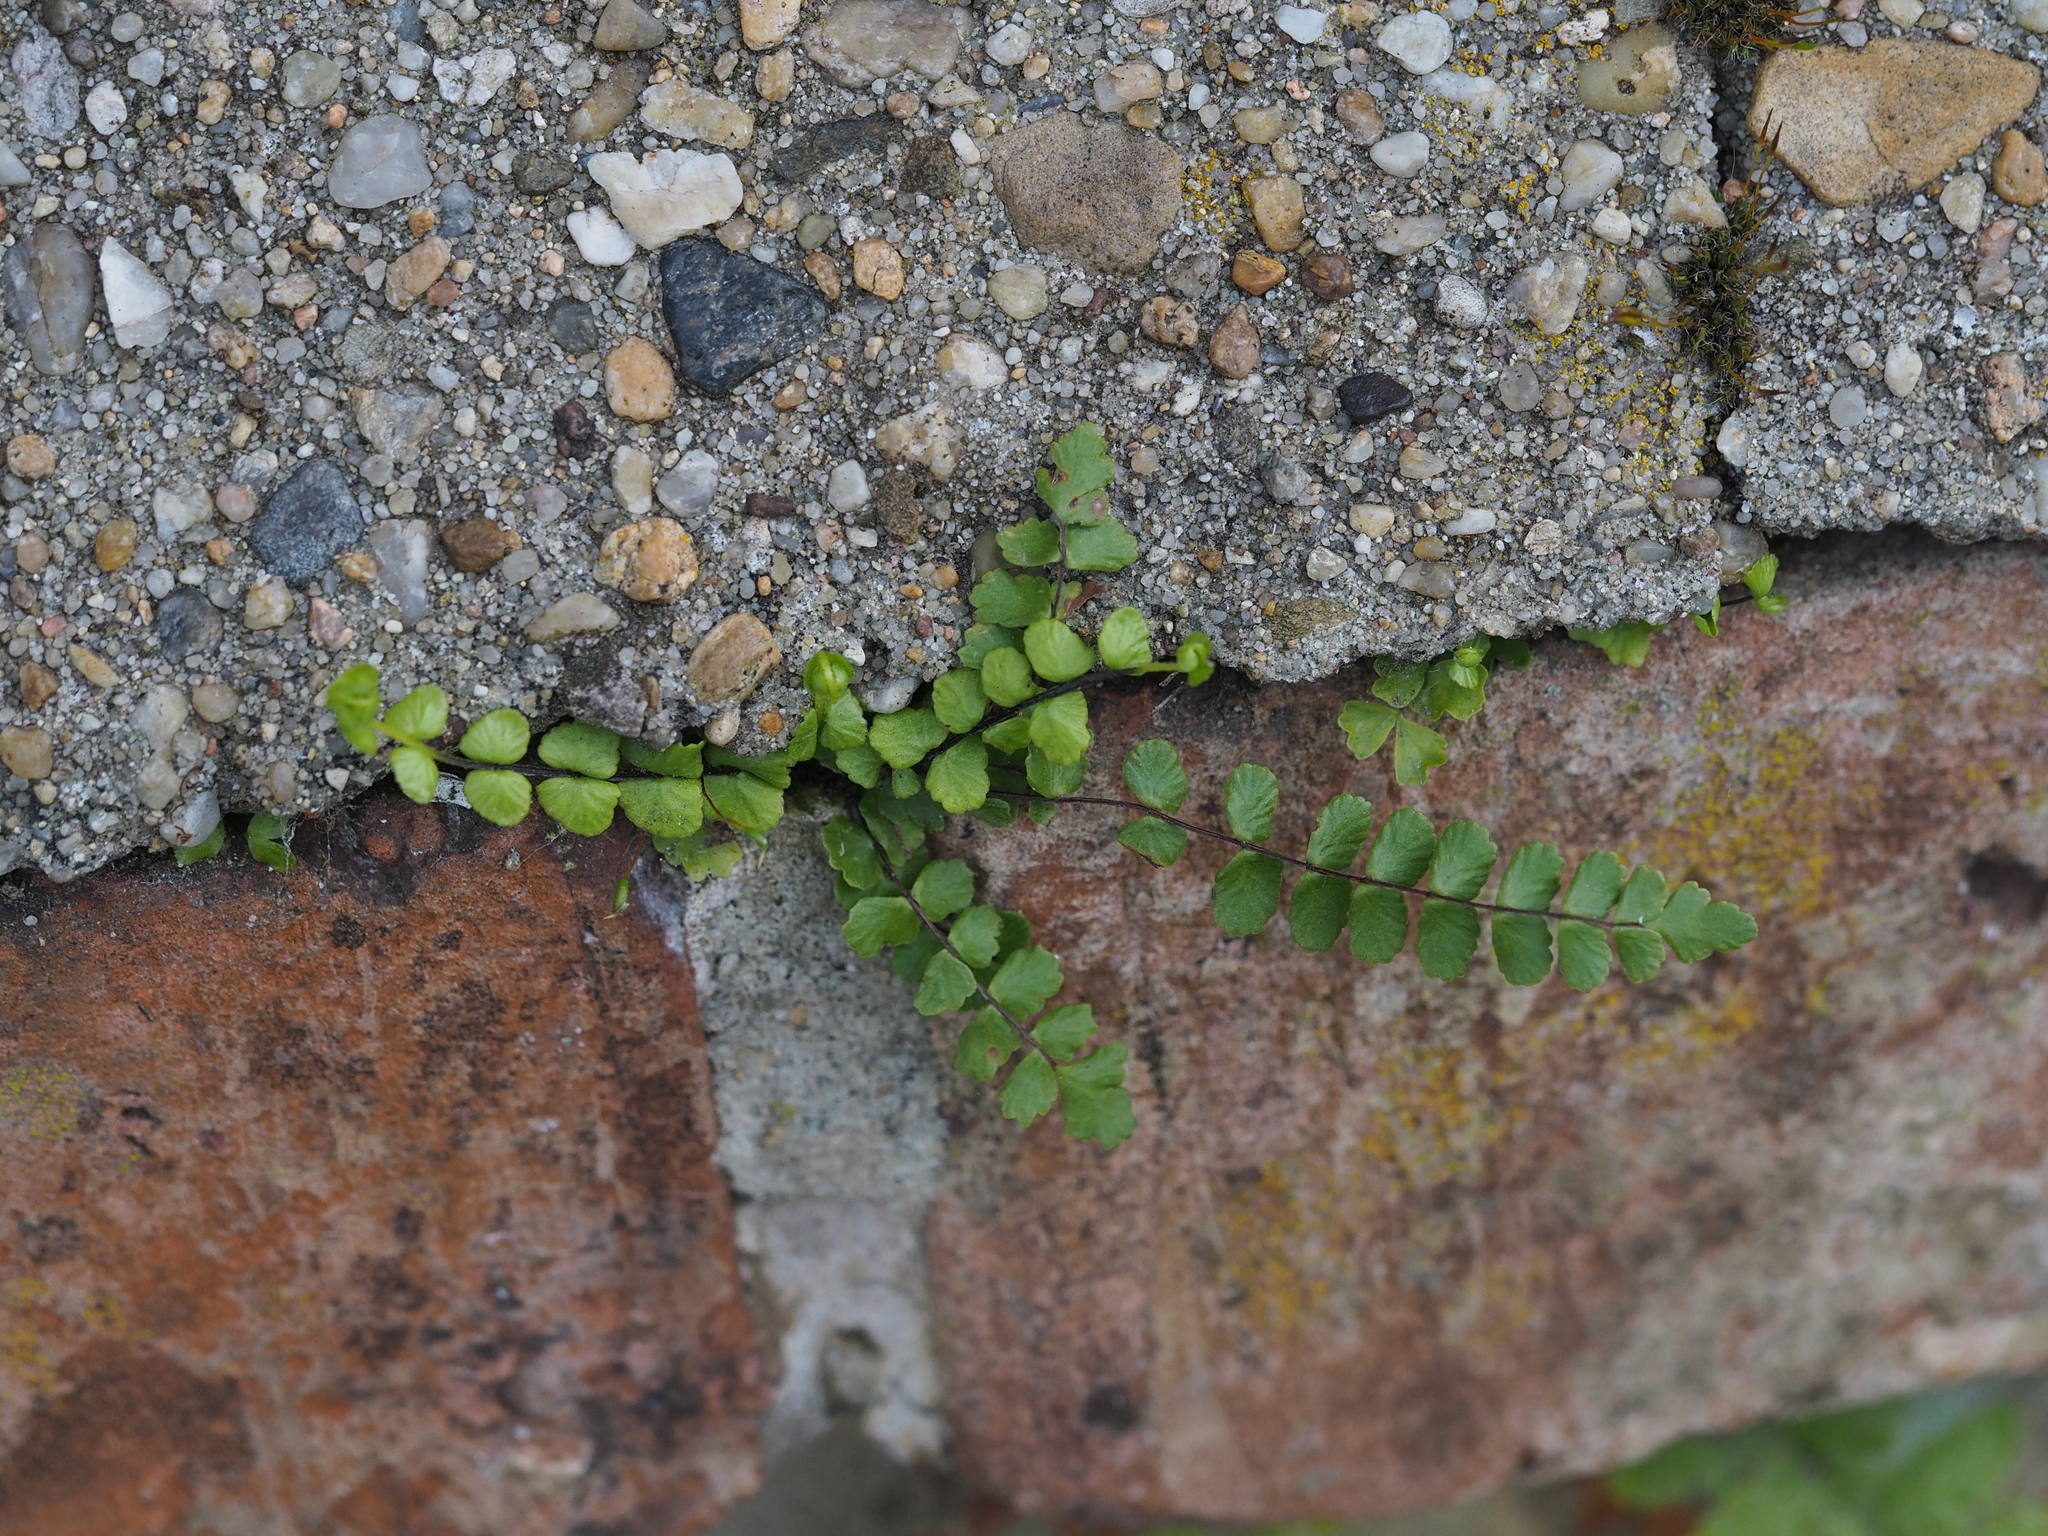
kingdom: Plantae
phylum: Tracheophyta
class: Polypodiopsida
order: Polypodiales
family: Aspleniaceae
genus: Asplenium
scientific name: Asplenium trichomanes
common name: Maidenhair spleenwort
